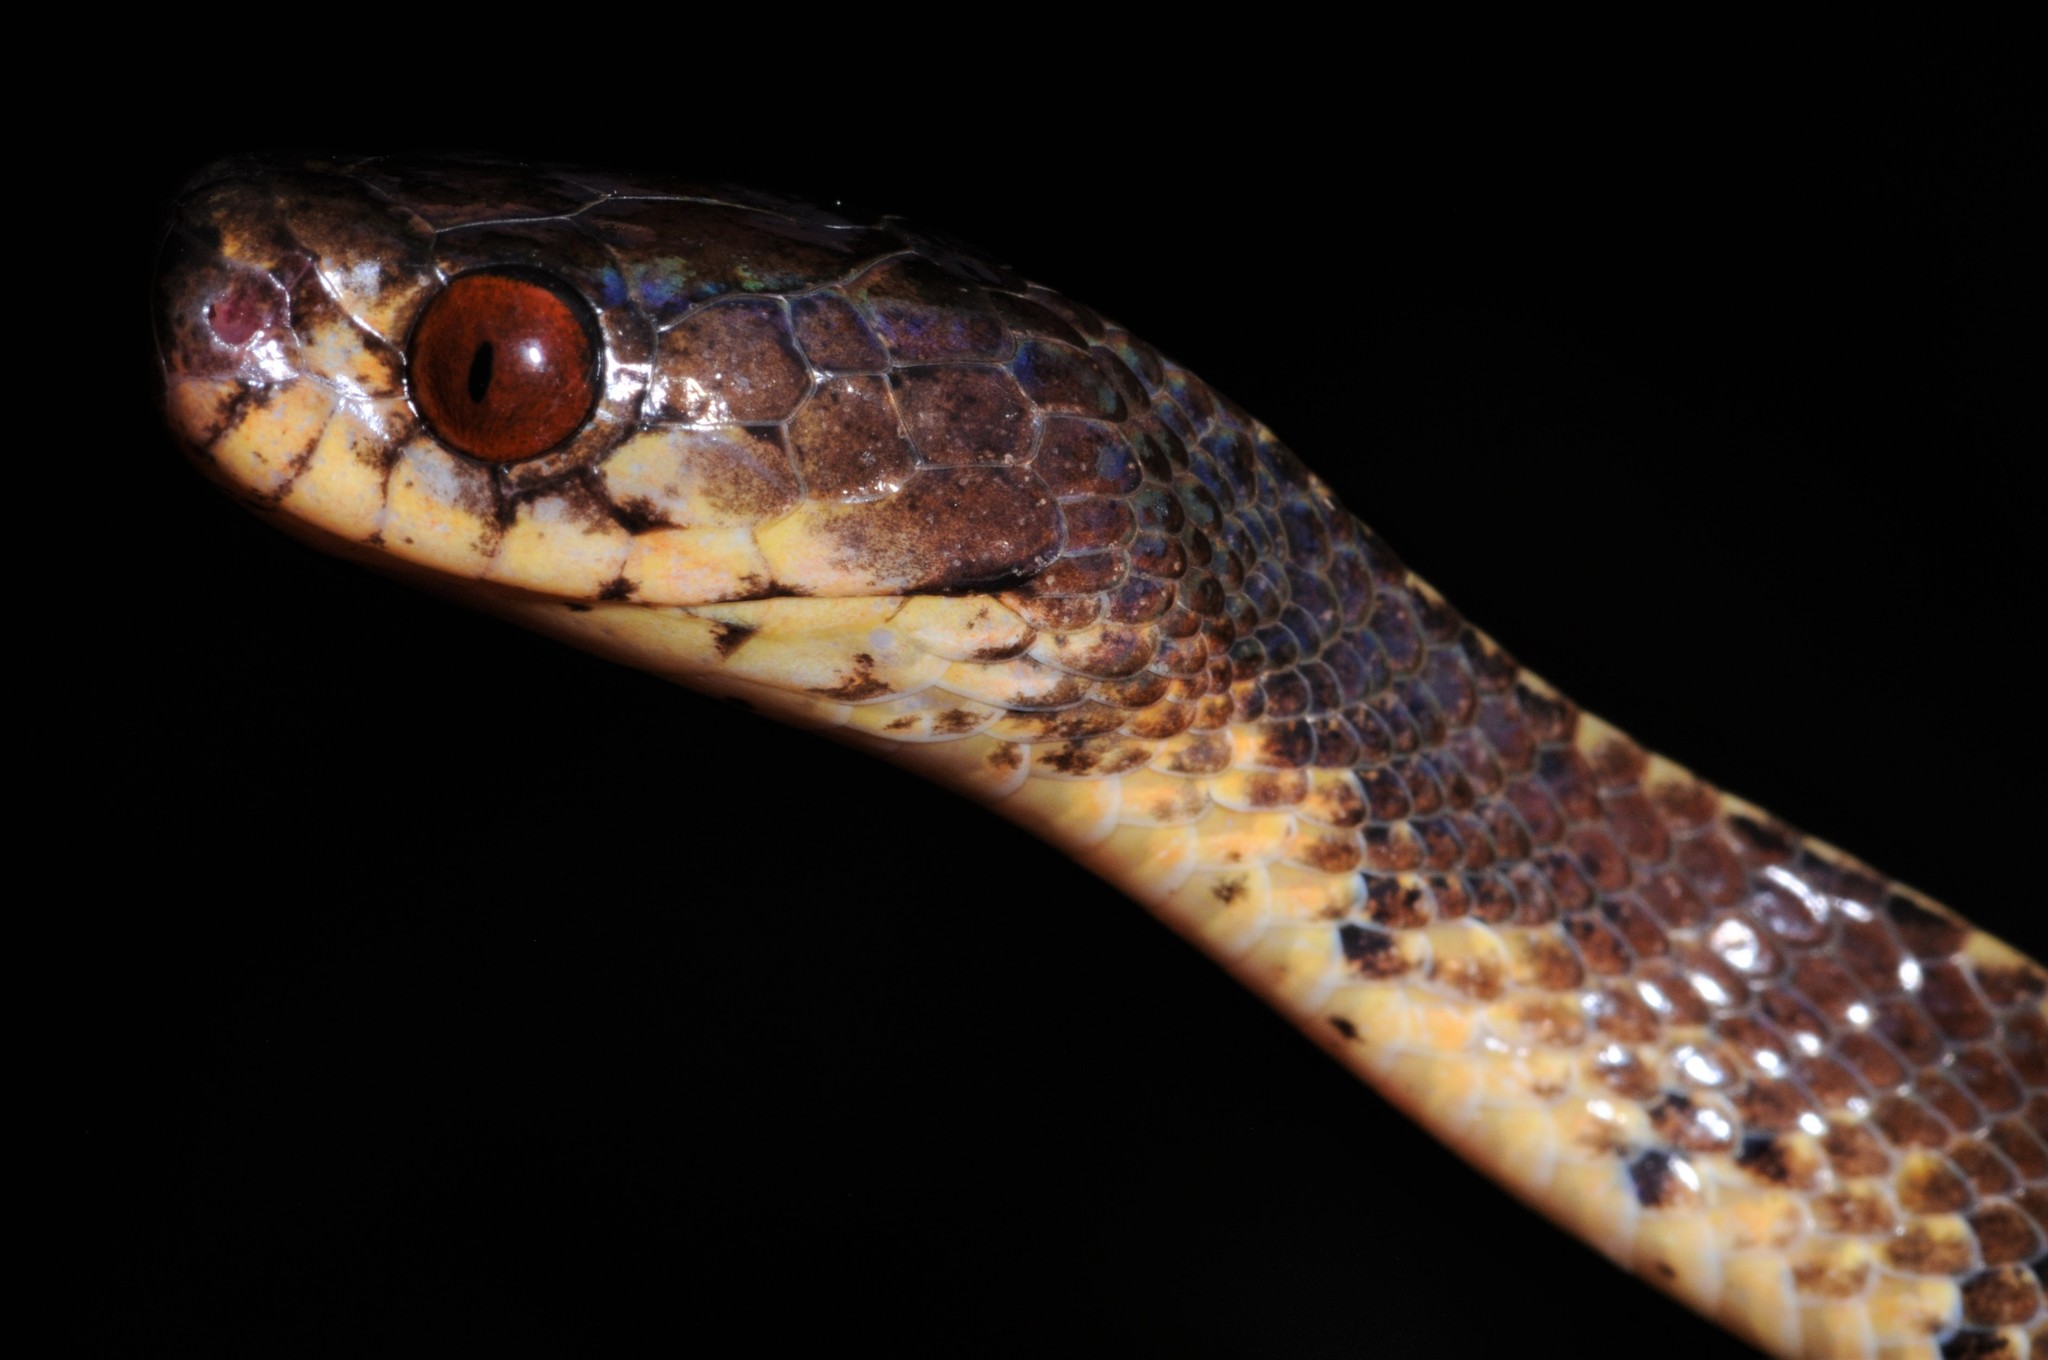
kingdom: Animalia
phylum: Chordata
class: Squamata
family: Pareidae
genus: Asthenodipsas
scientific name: Asthenodipsas vertebralis
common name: Vertebral slug snake
